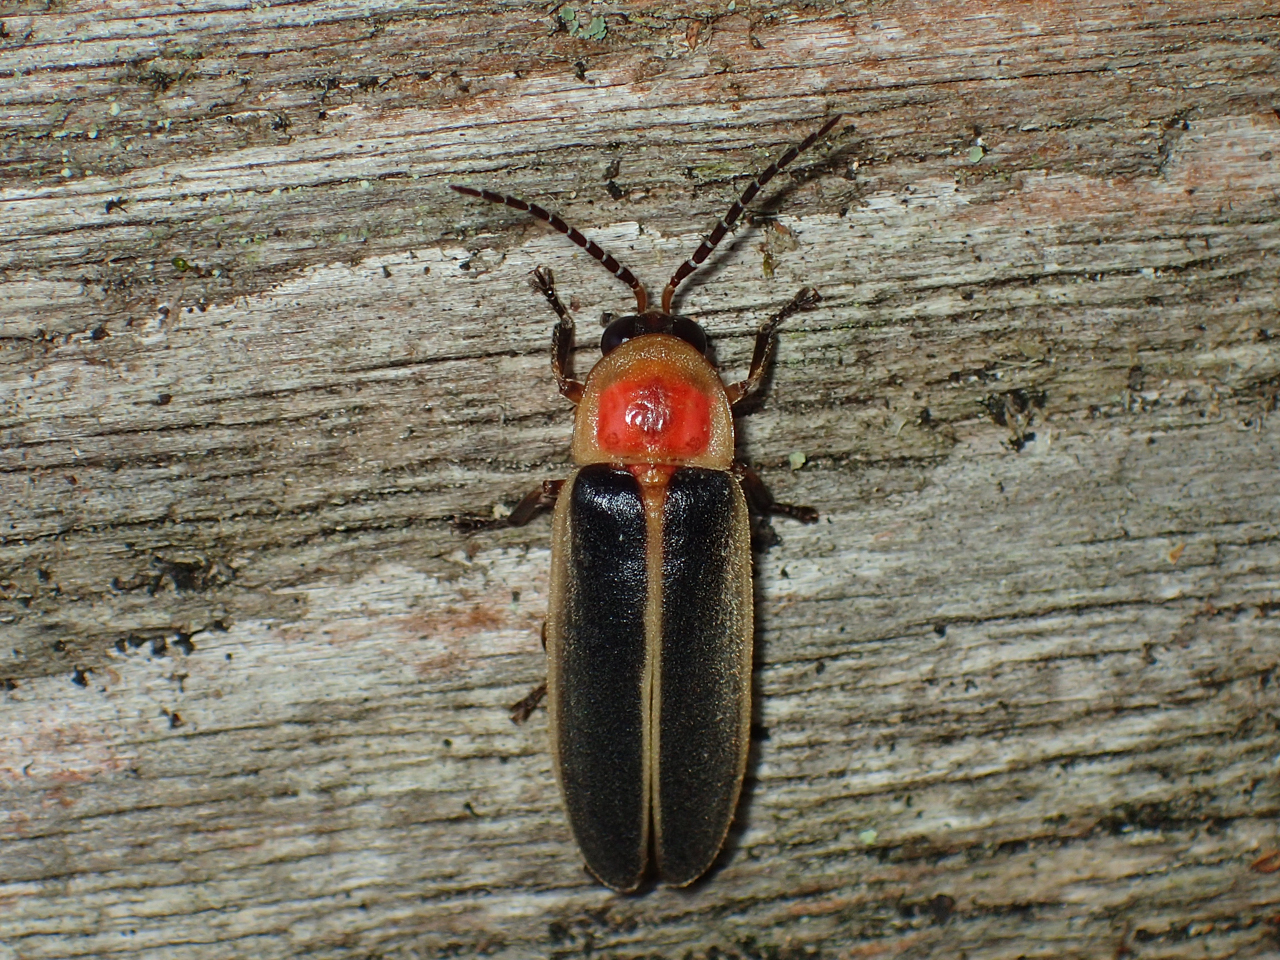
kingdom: Animalia
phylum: Arthropoda
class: Insecta
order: Coleoptera
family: Lampyridae
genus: Photinus
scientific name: Photinus pyralis
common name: Big dipper firefly
